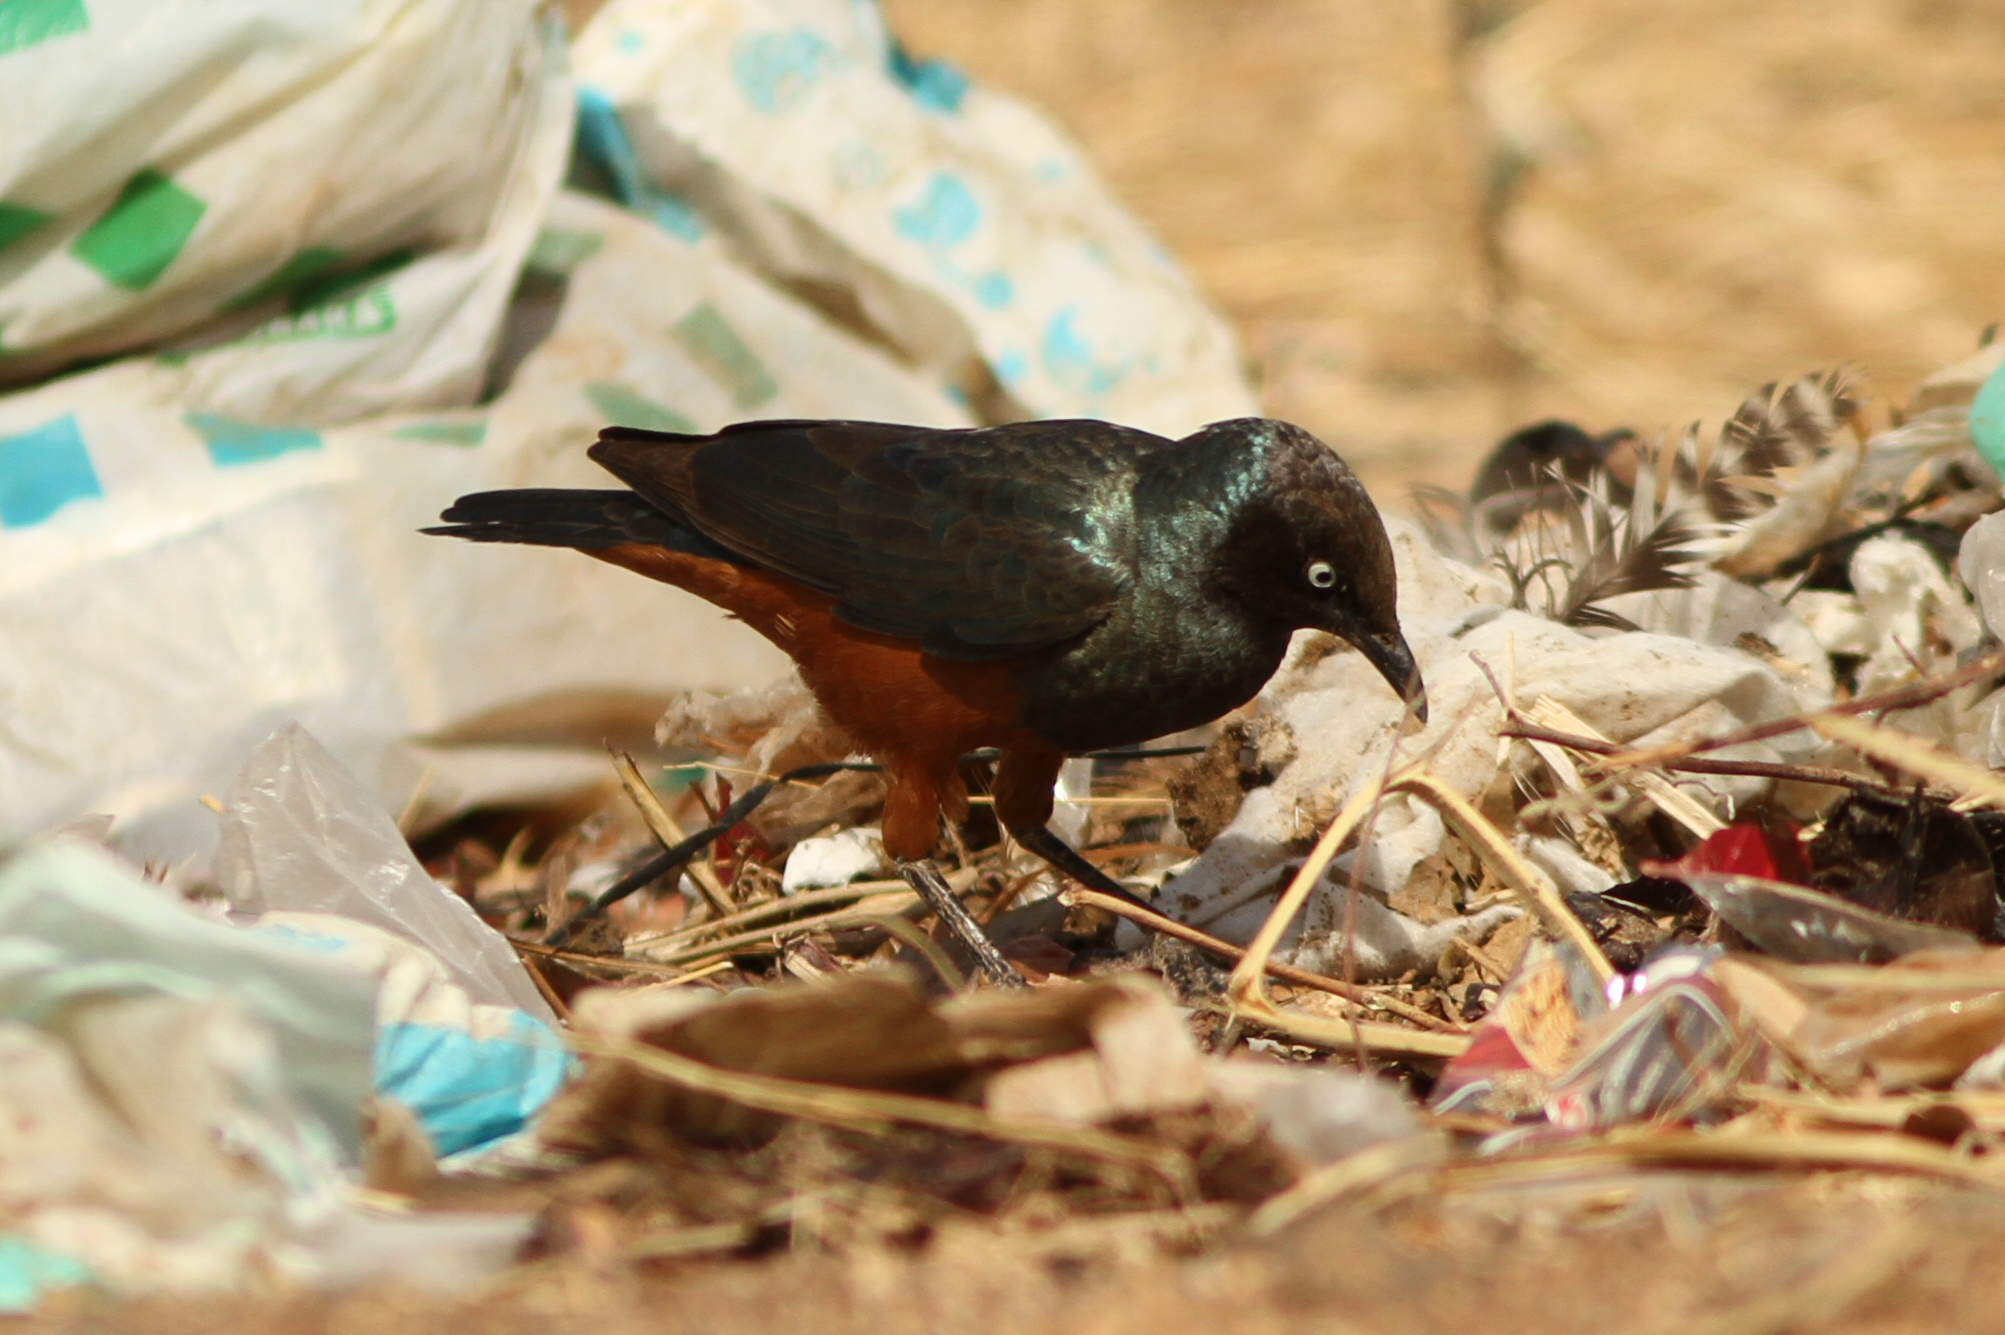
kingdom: Animalia
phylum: Chordata
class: Aves
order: Passeriformes
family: Sturnidae
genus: Lamprotornis
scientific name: Lamprotornis pulcher
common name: Chestnut-bellied starling
